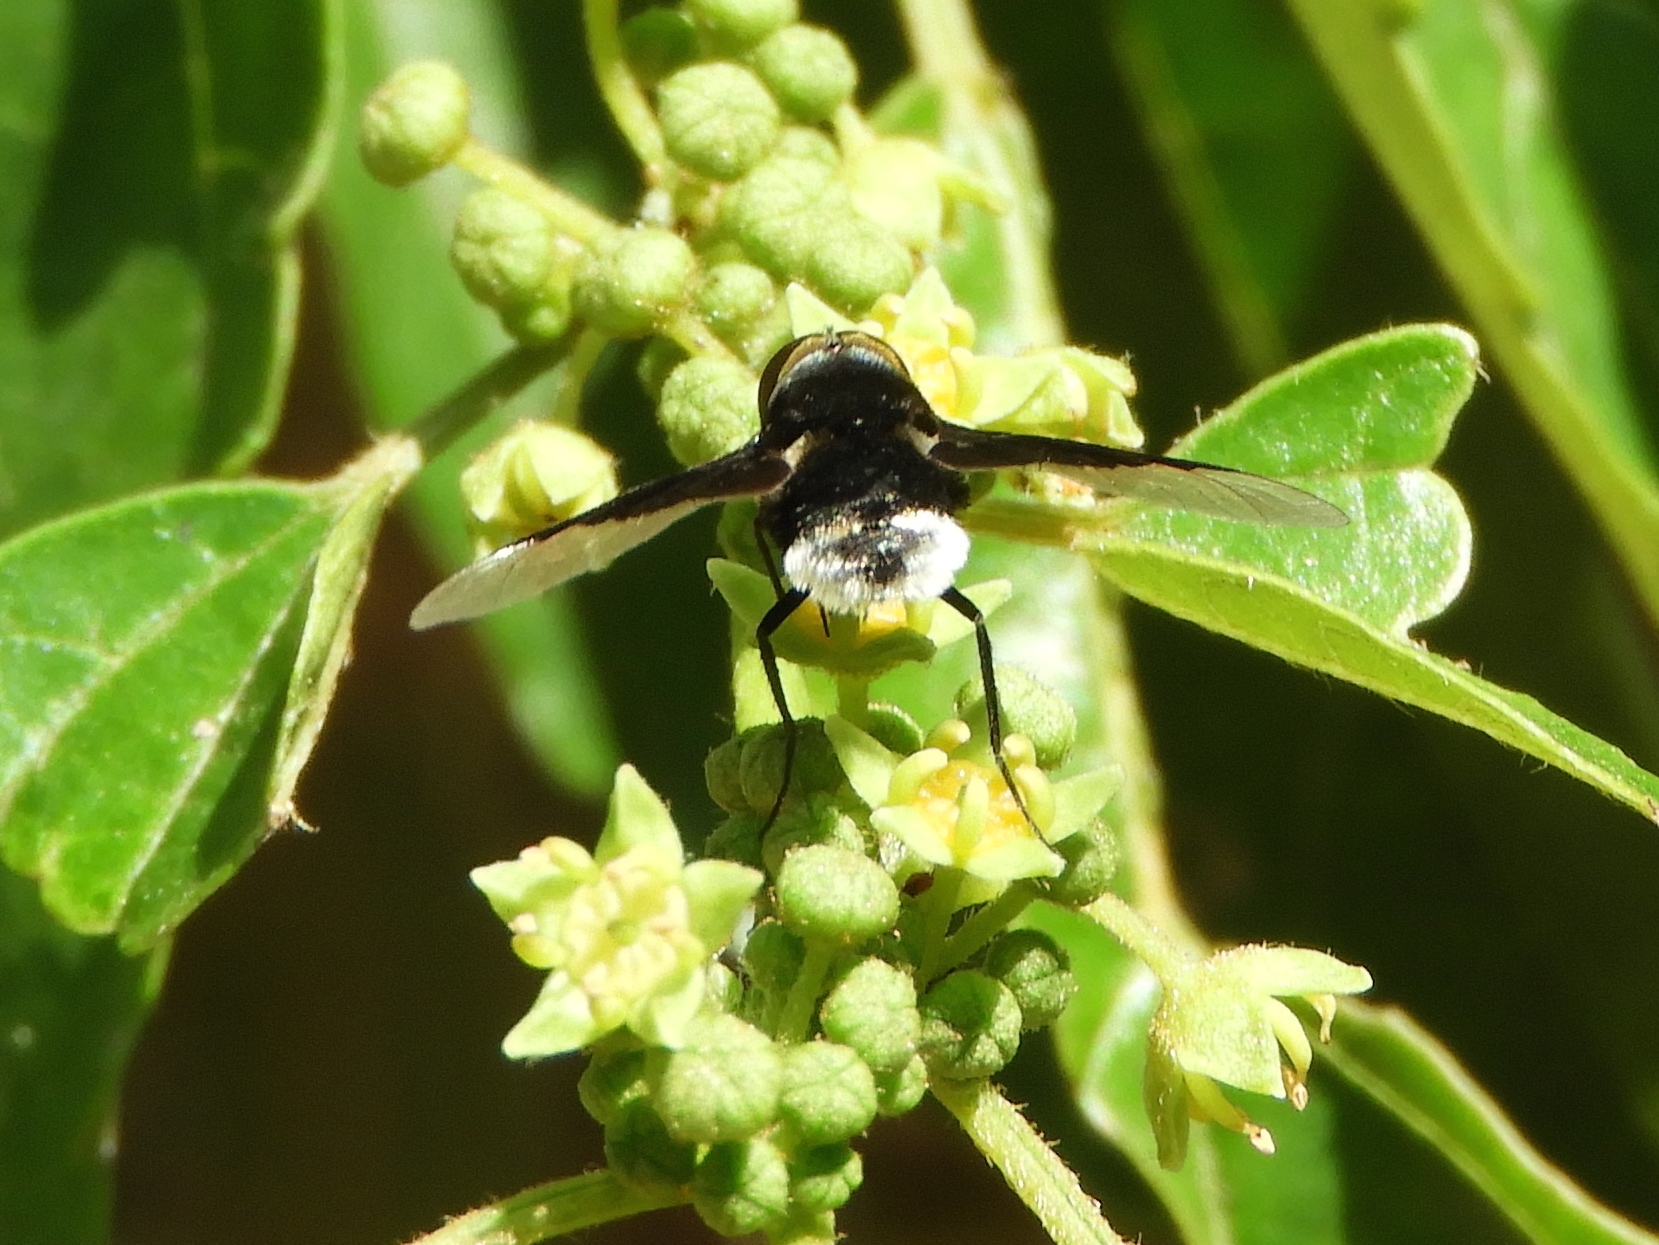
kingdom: Animalia
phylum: Arthropoda
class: Insecta
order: Diptera
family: Bombyliidae
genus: Ins
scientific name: Ins celeris
